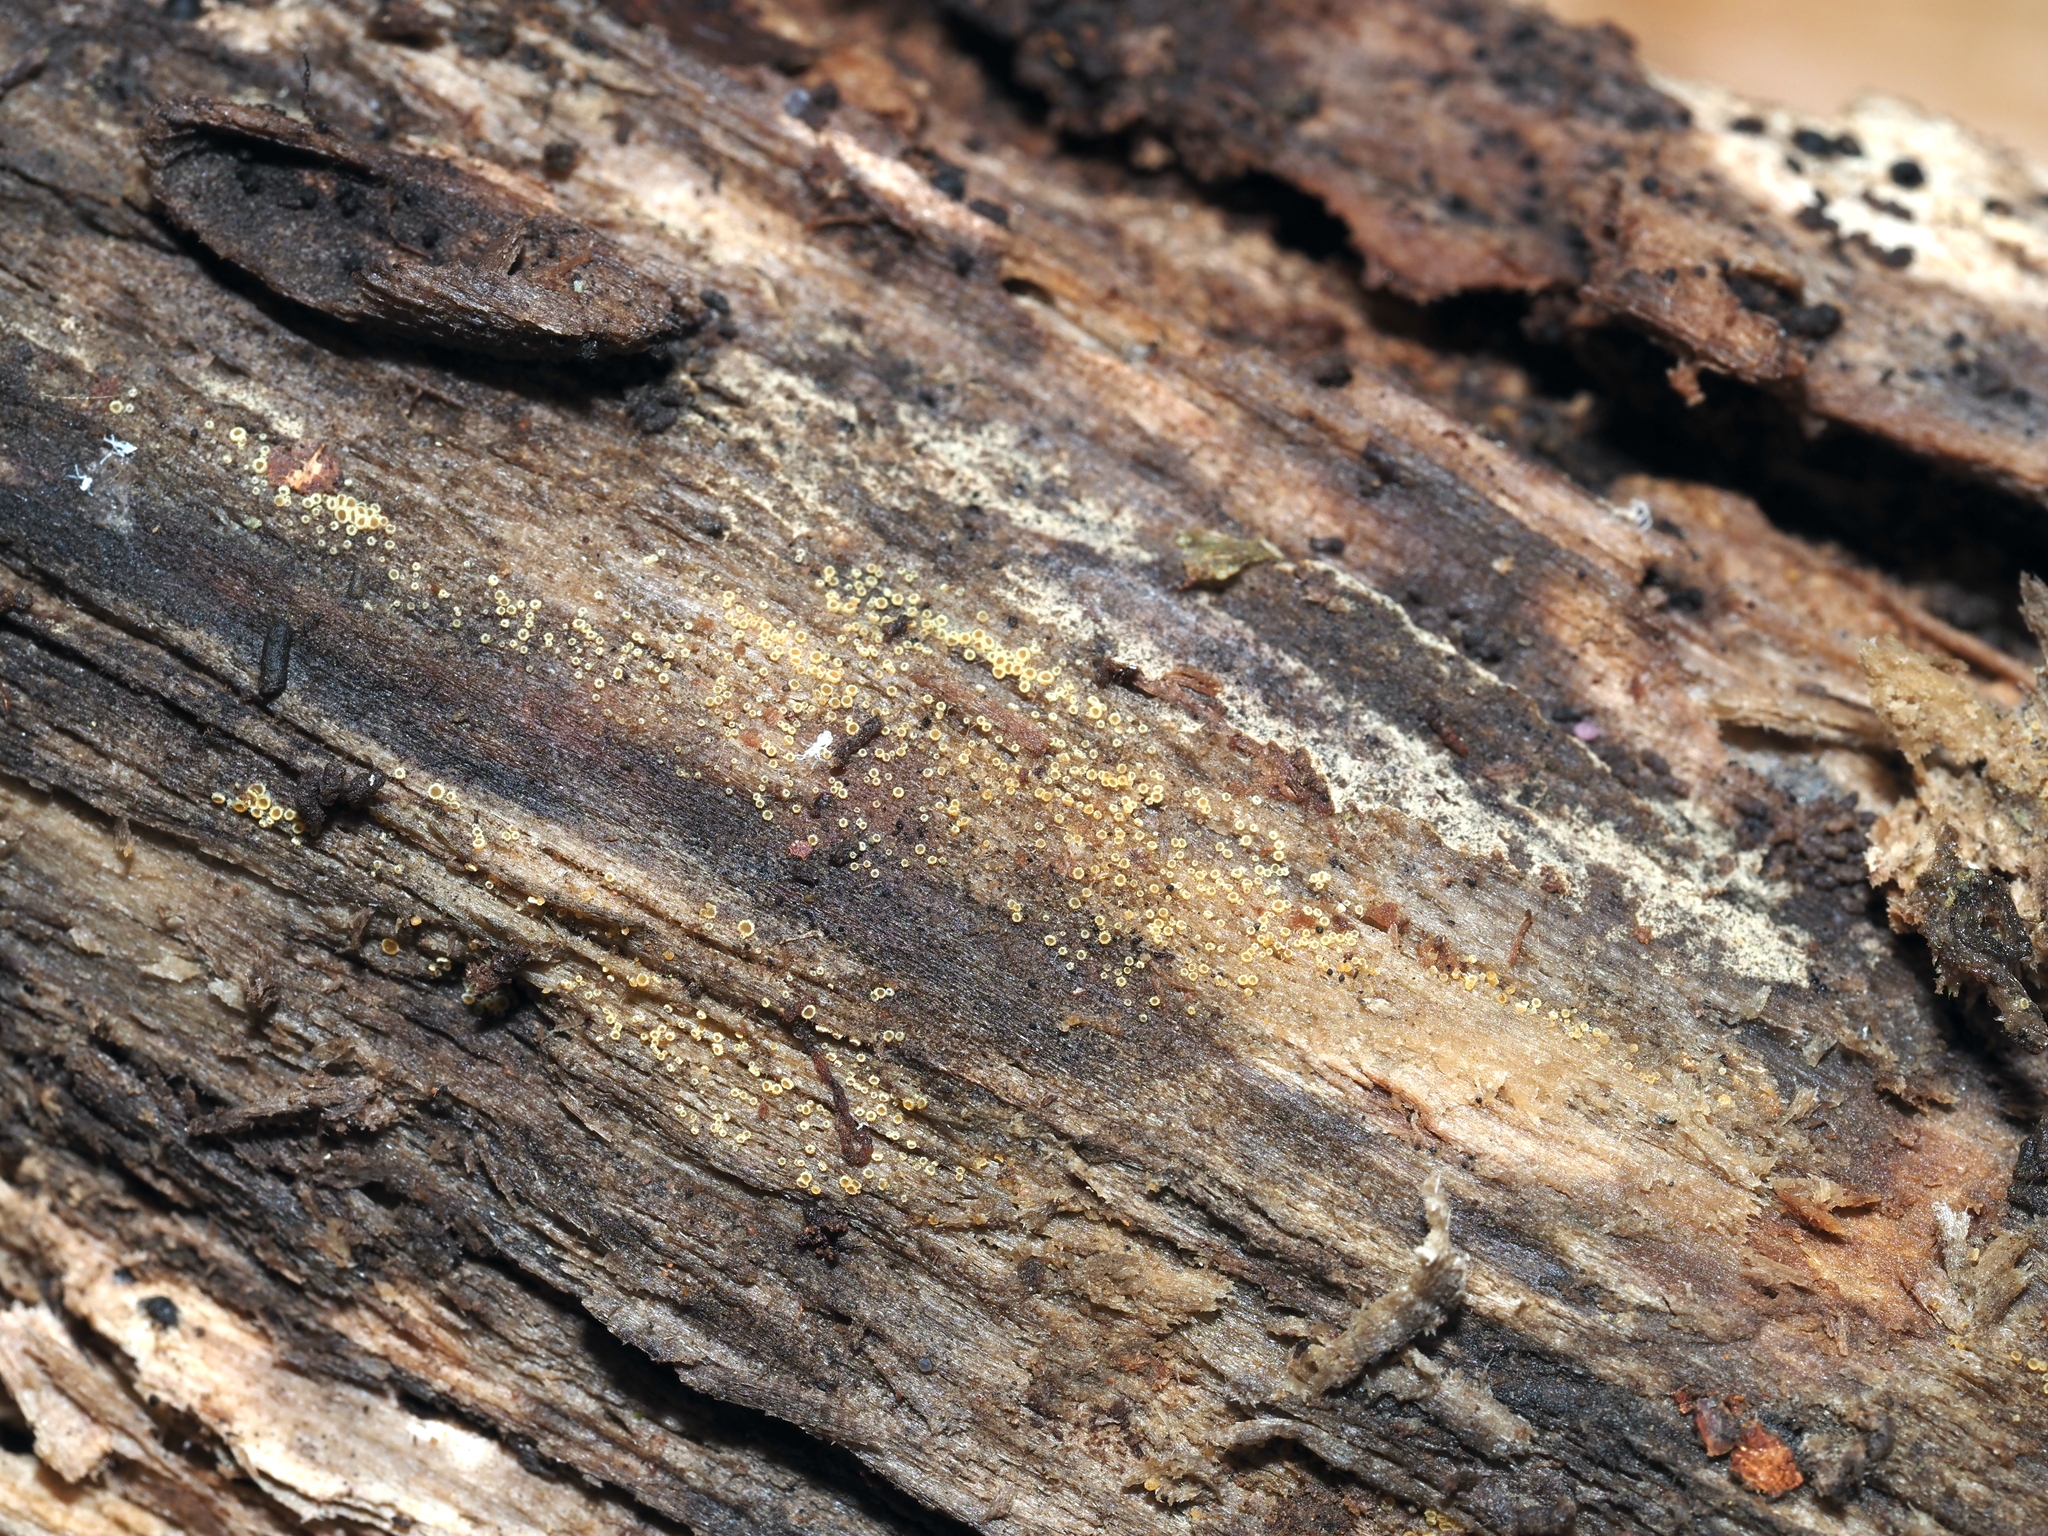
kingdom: Fungi
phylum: Ascomycota
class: Leotiomycetes
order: Helotiales
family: Arachnopezizaceae
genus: Arachnopeziza
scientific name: Arachnopeziza trabinelloides
